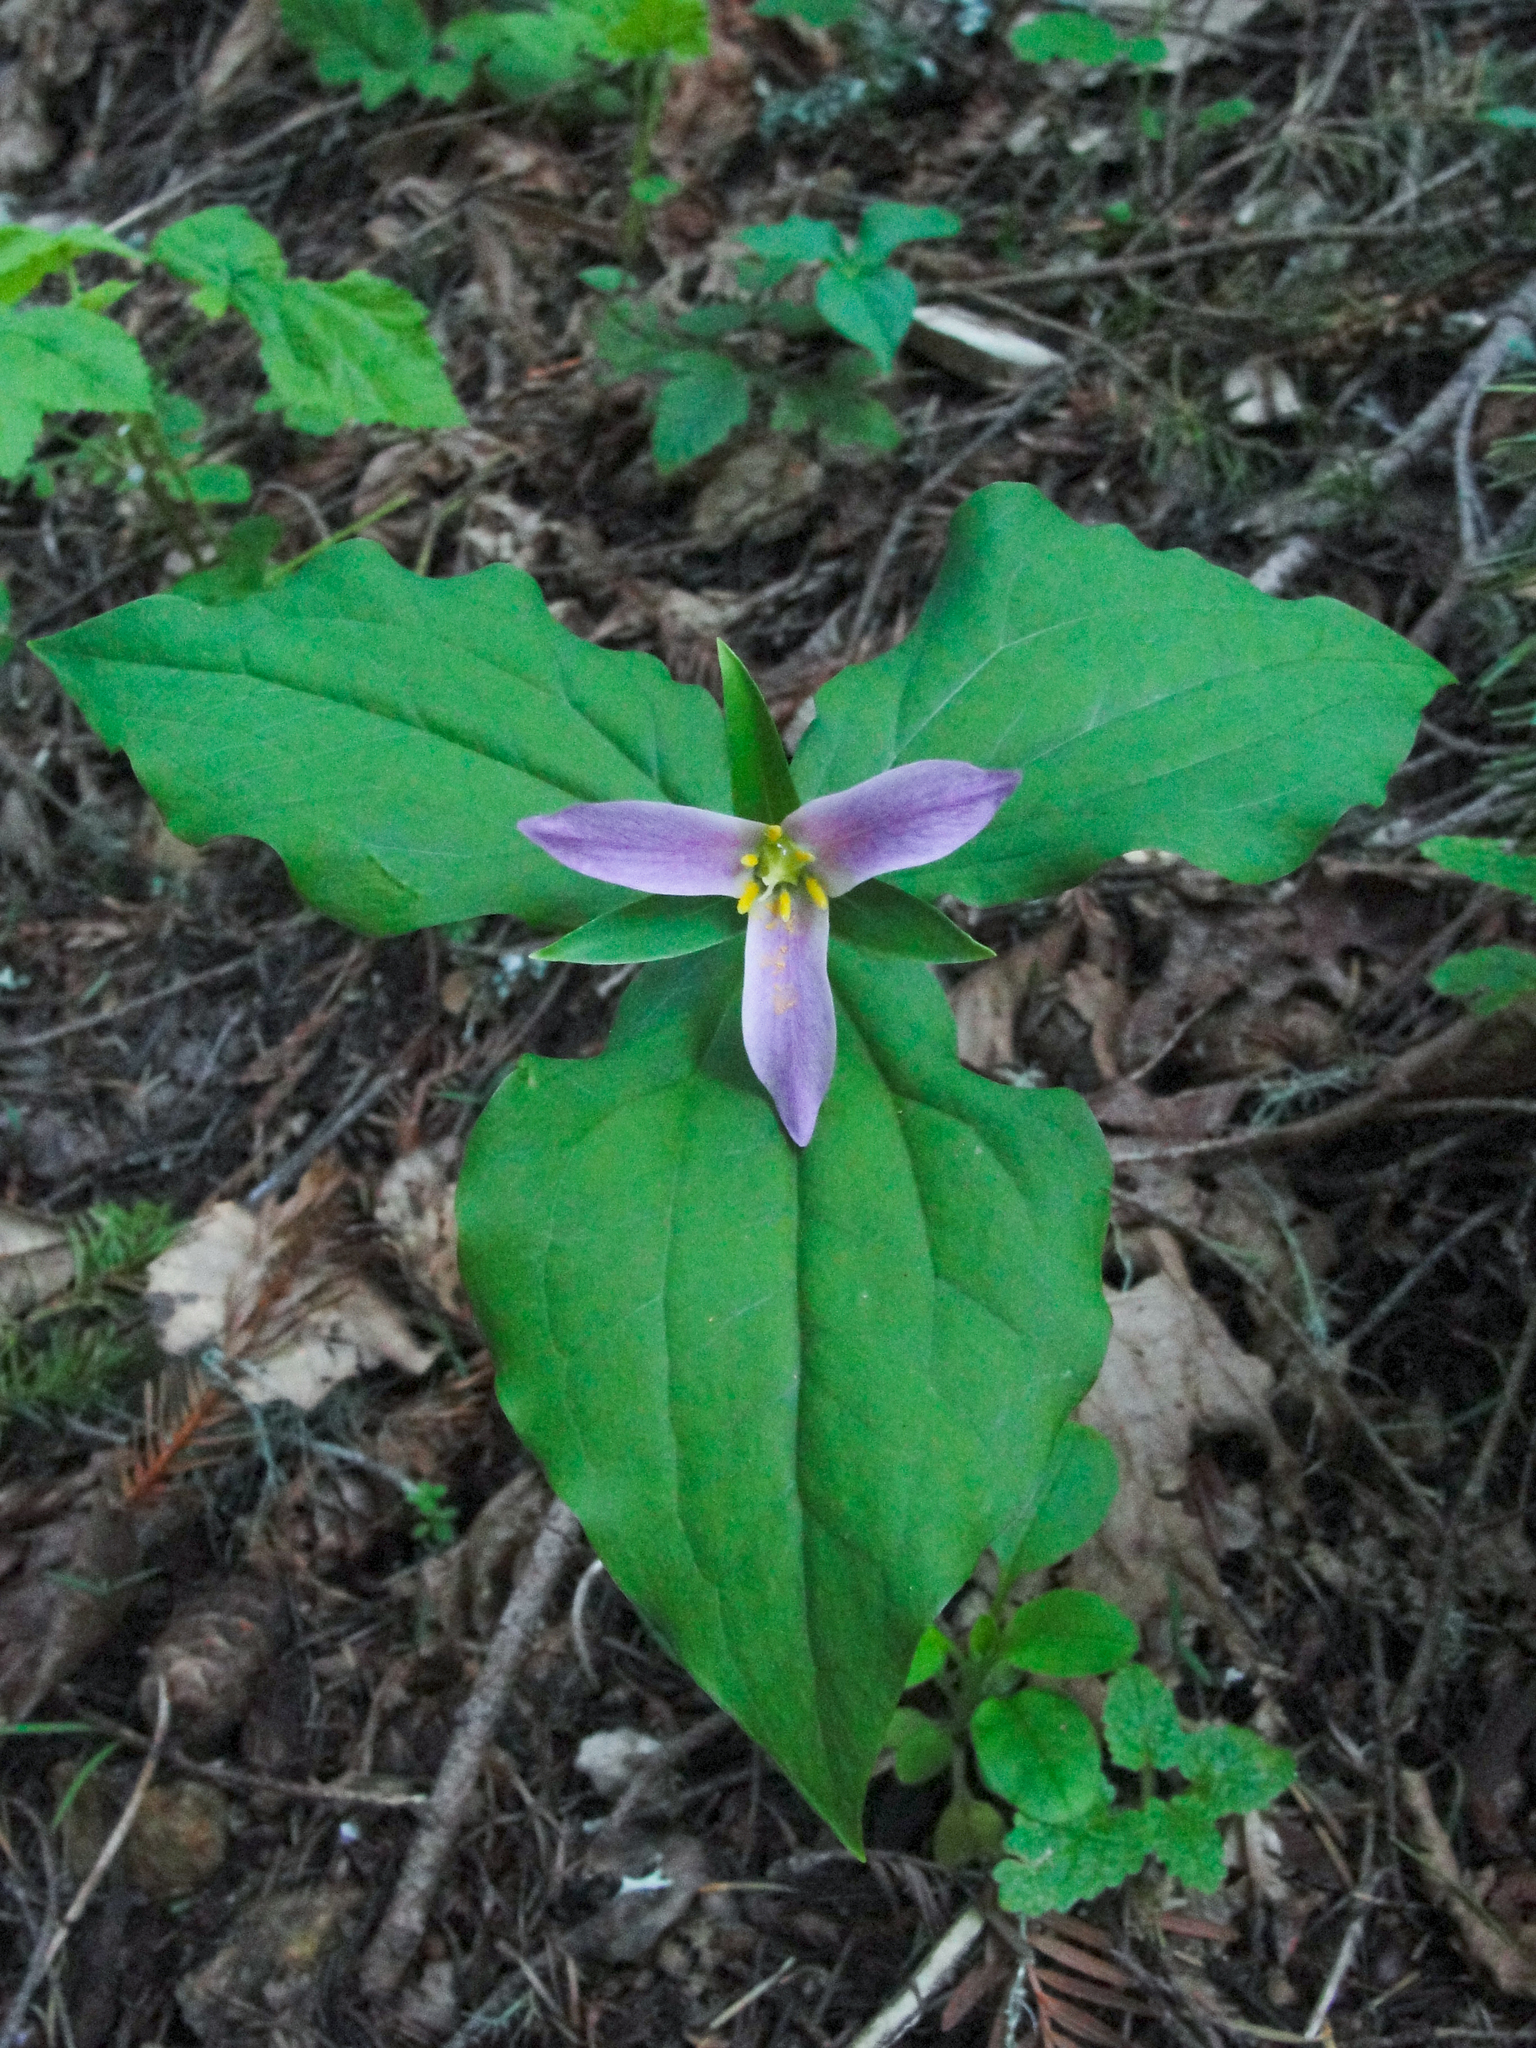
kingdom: Plantae
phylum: Tracheophyta
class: Liliopsida
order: Liliales
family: Melanthiaceae
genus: Trillium
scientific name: Trillium ovatum
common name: Pacific trillium
